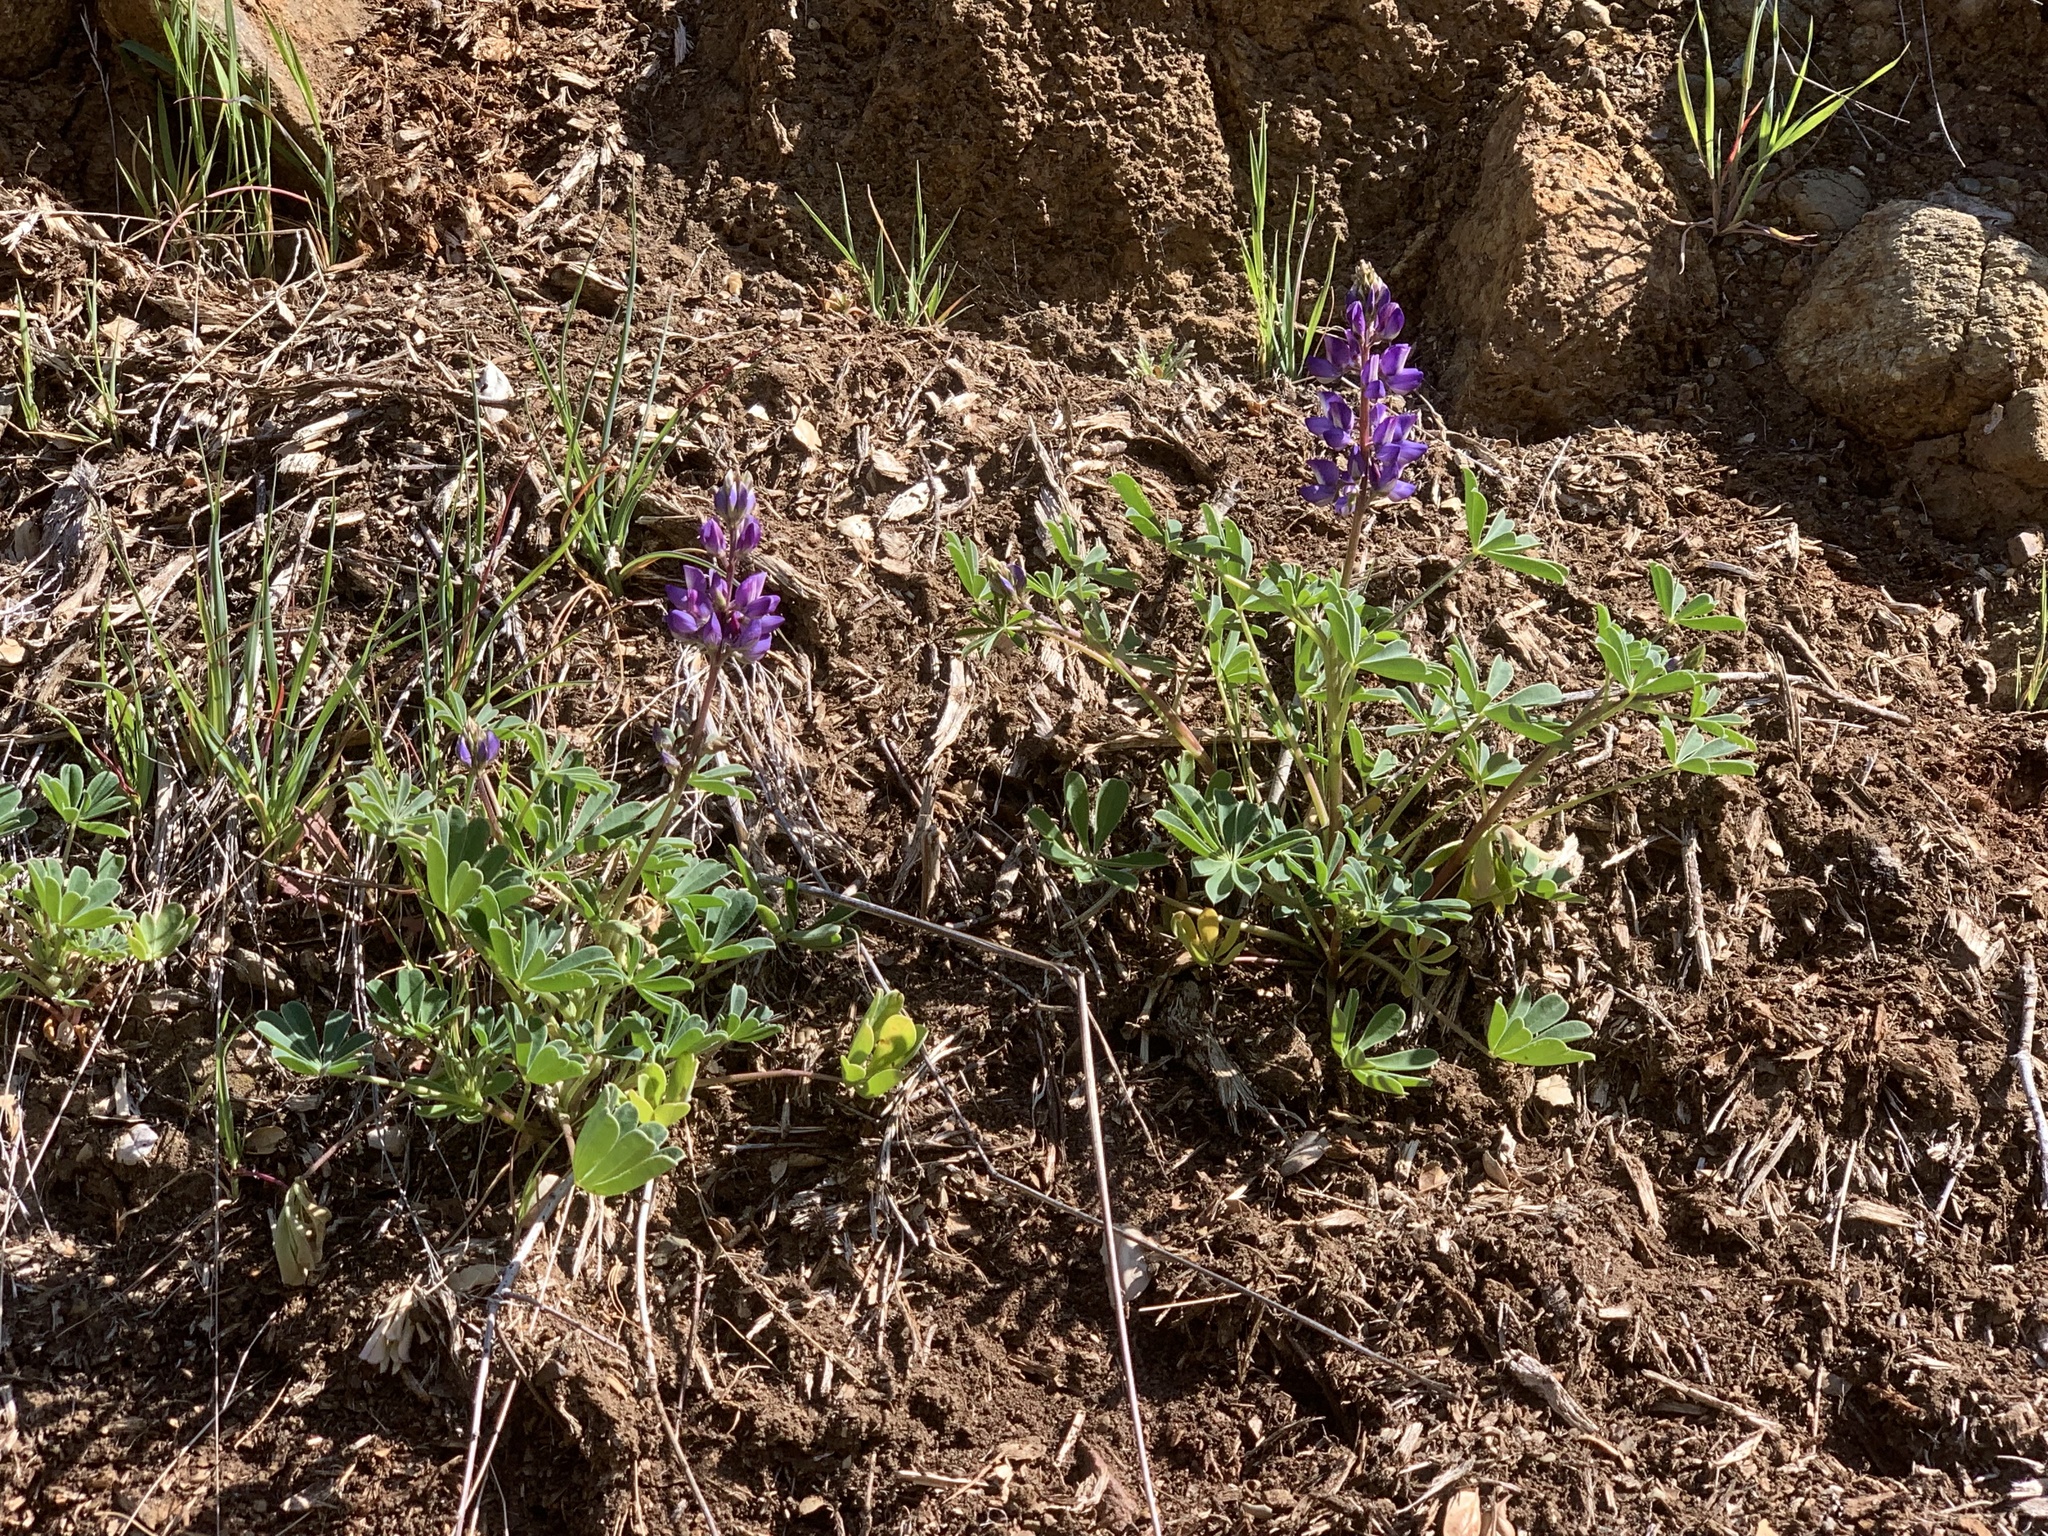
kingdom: Plantae
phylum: Tracheophyta
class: Magnoliopsida
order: Fabales
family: Fabaceae
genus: Lupinus
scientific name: Lupinus succulentus
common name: Arroyo lupine
